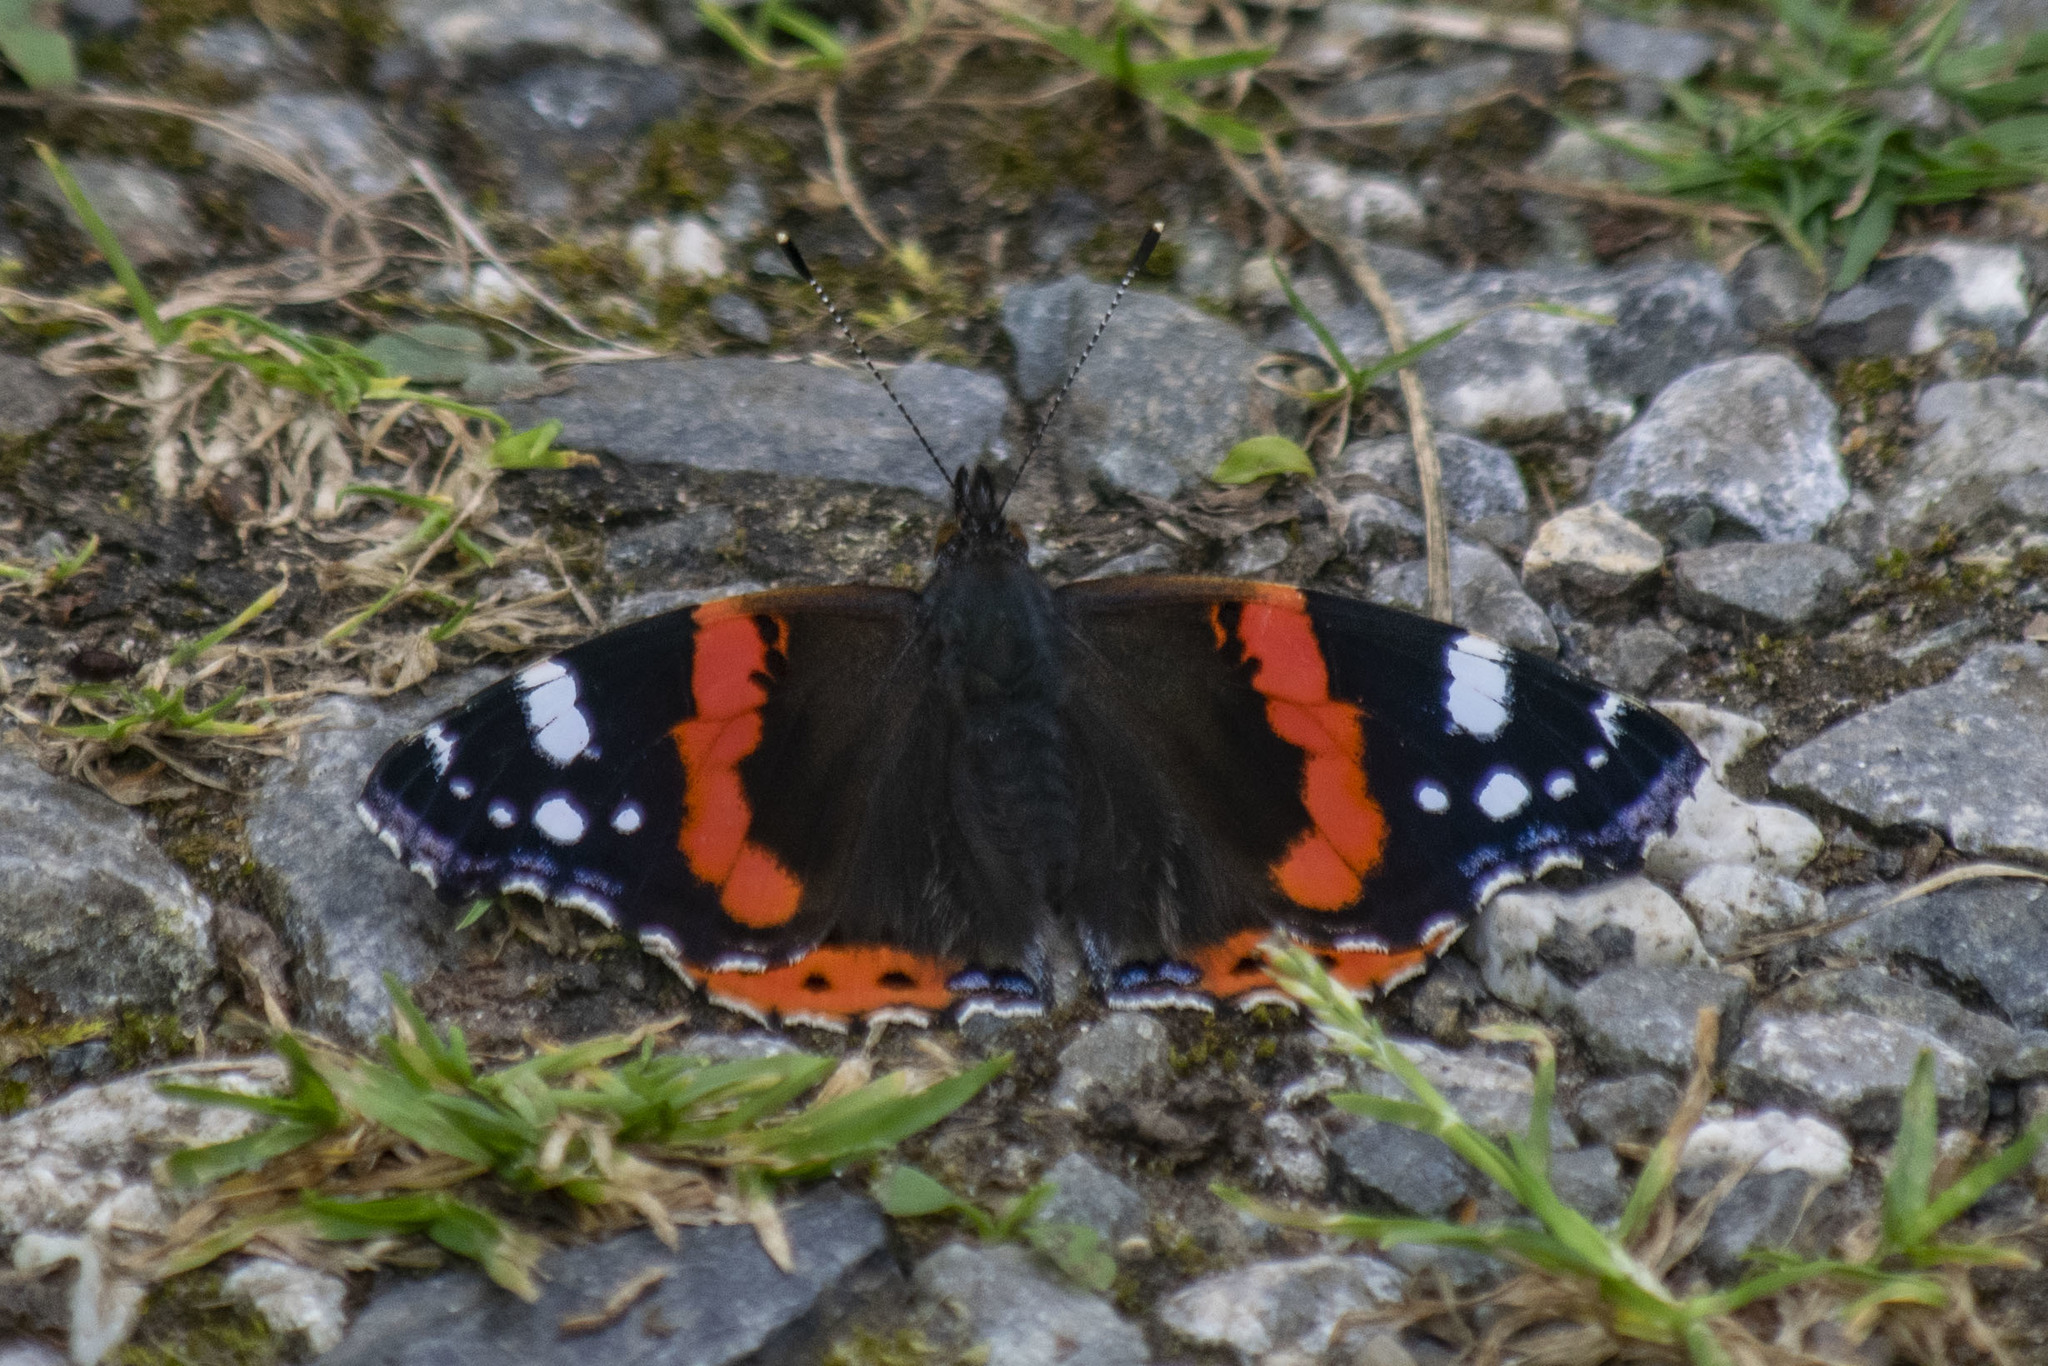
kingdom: Animalia
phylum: Arthropoda
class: Insecta
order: Lepidoptera
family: Nymphalidae
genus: Vanessa
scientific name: Vanessa atalanta
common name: Red admiral
